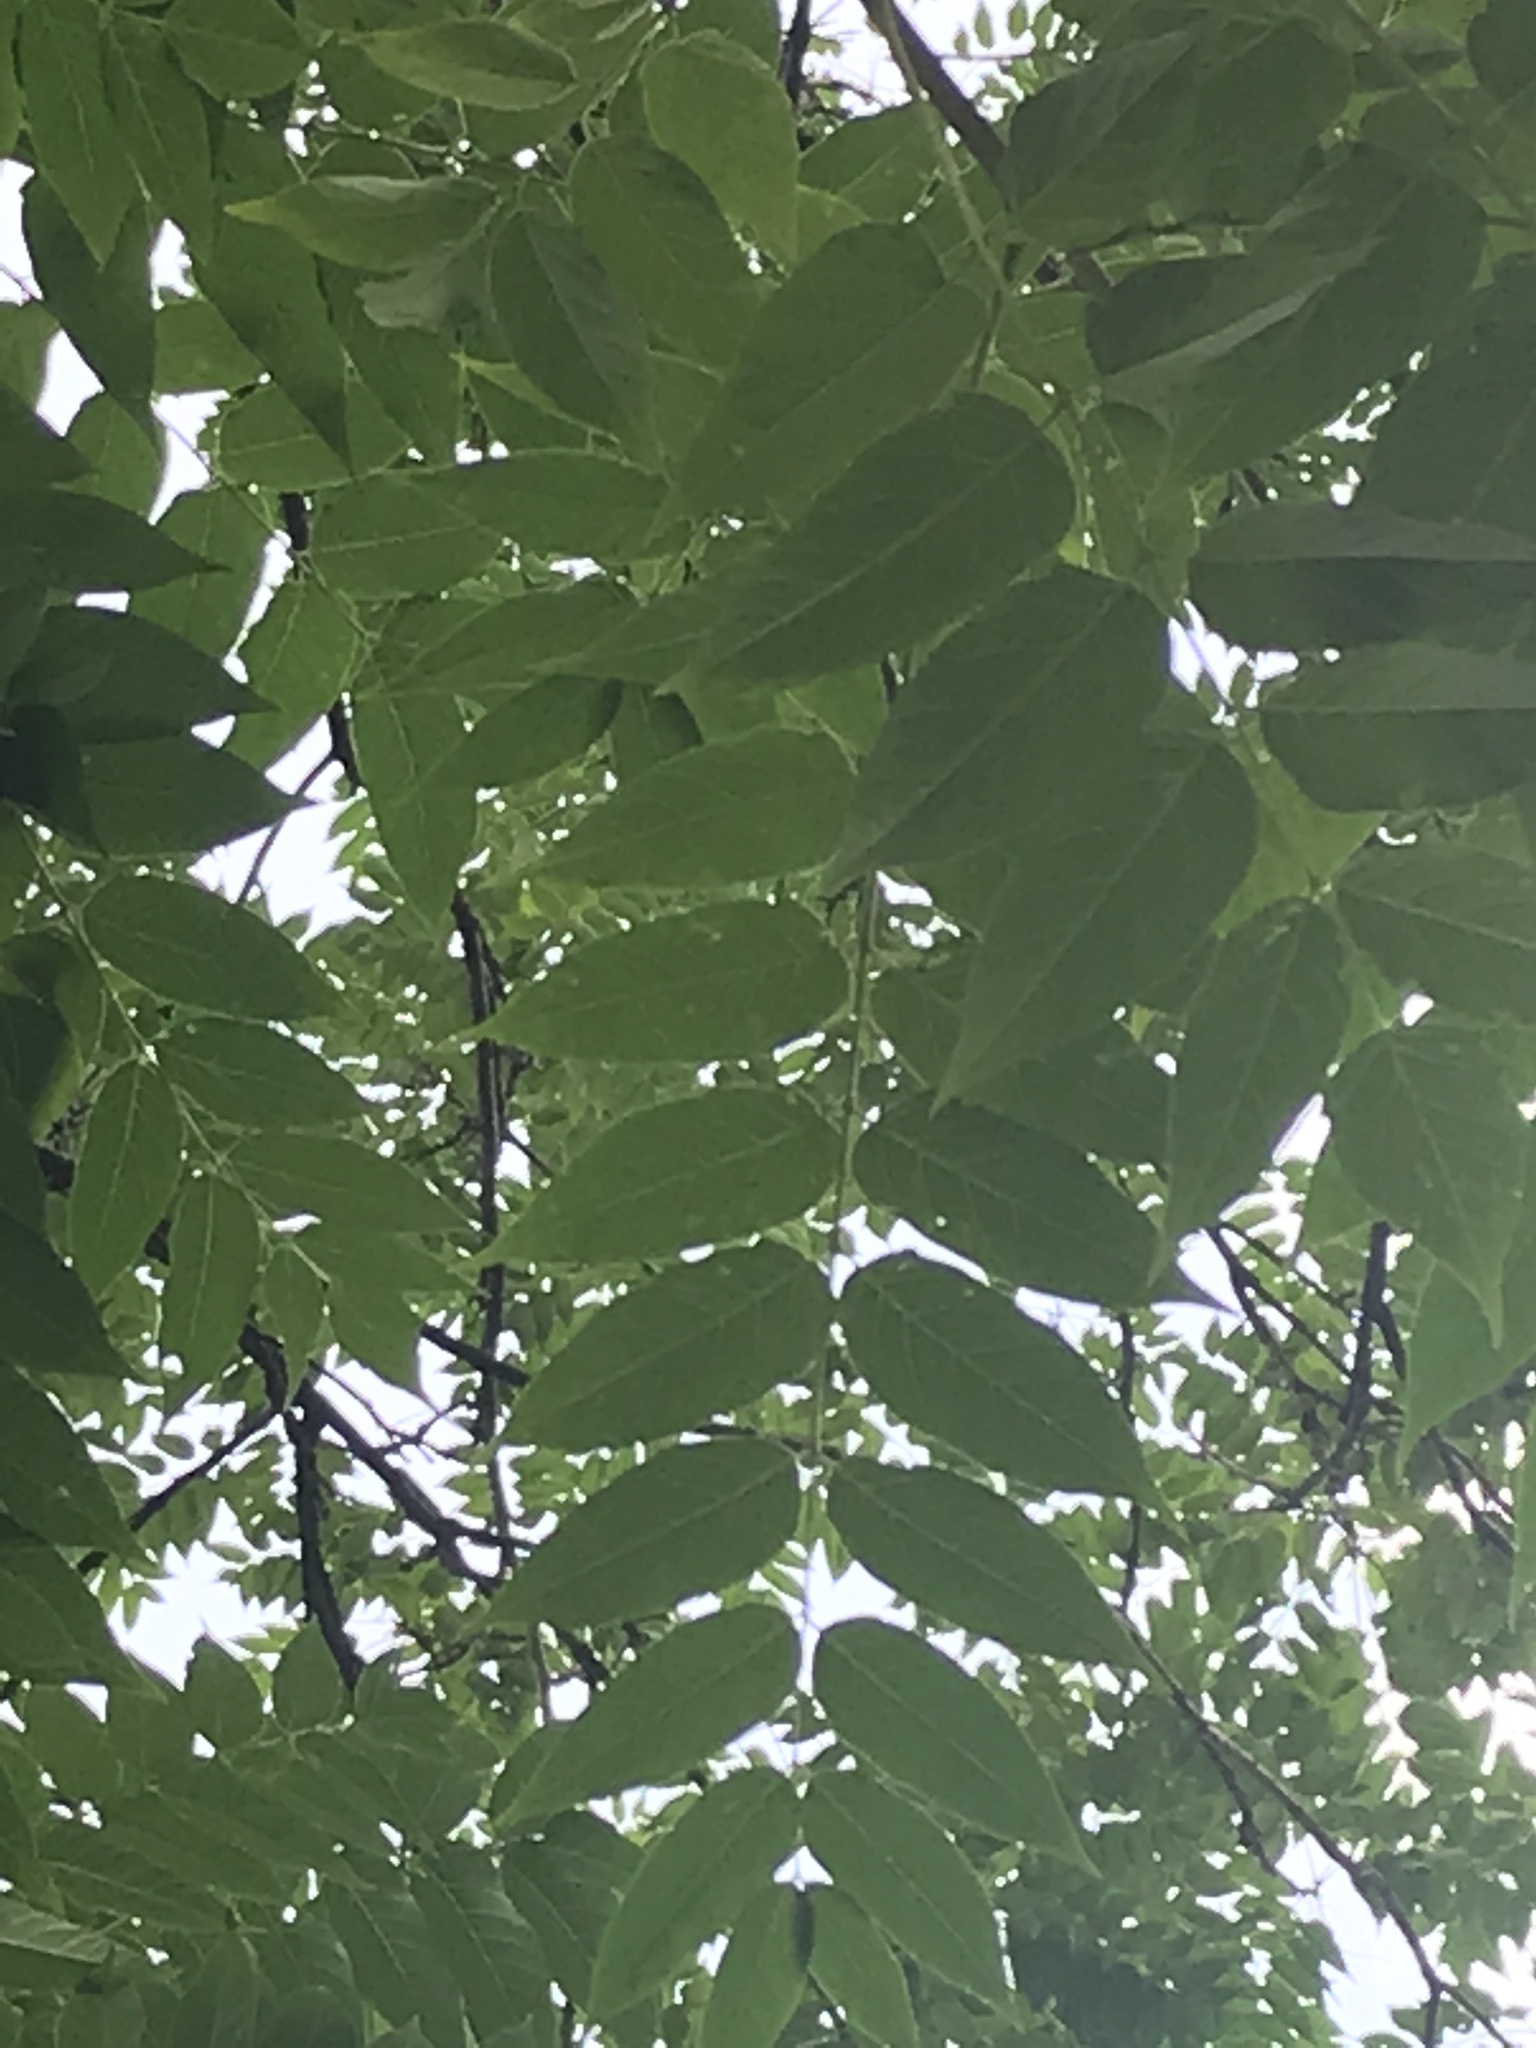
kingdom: Plantae
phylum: Tracheophyta
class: Magnoliopsida
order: Sapindales
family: Simaroubaceae
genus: Ailanthus
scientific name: Ailanthus altissima
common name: Tree-of-heaven
